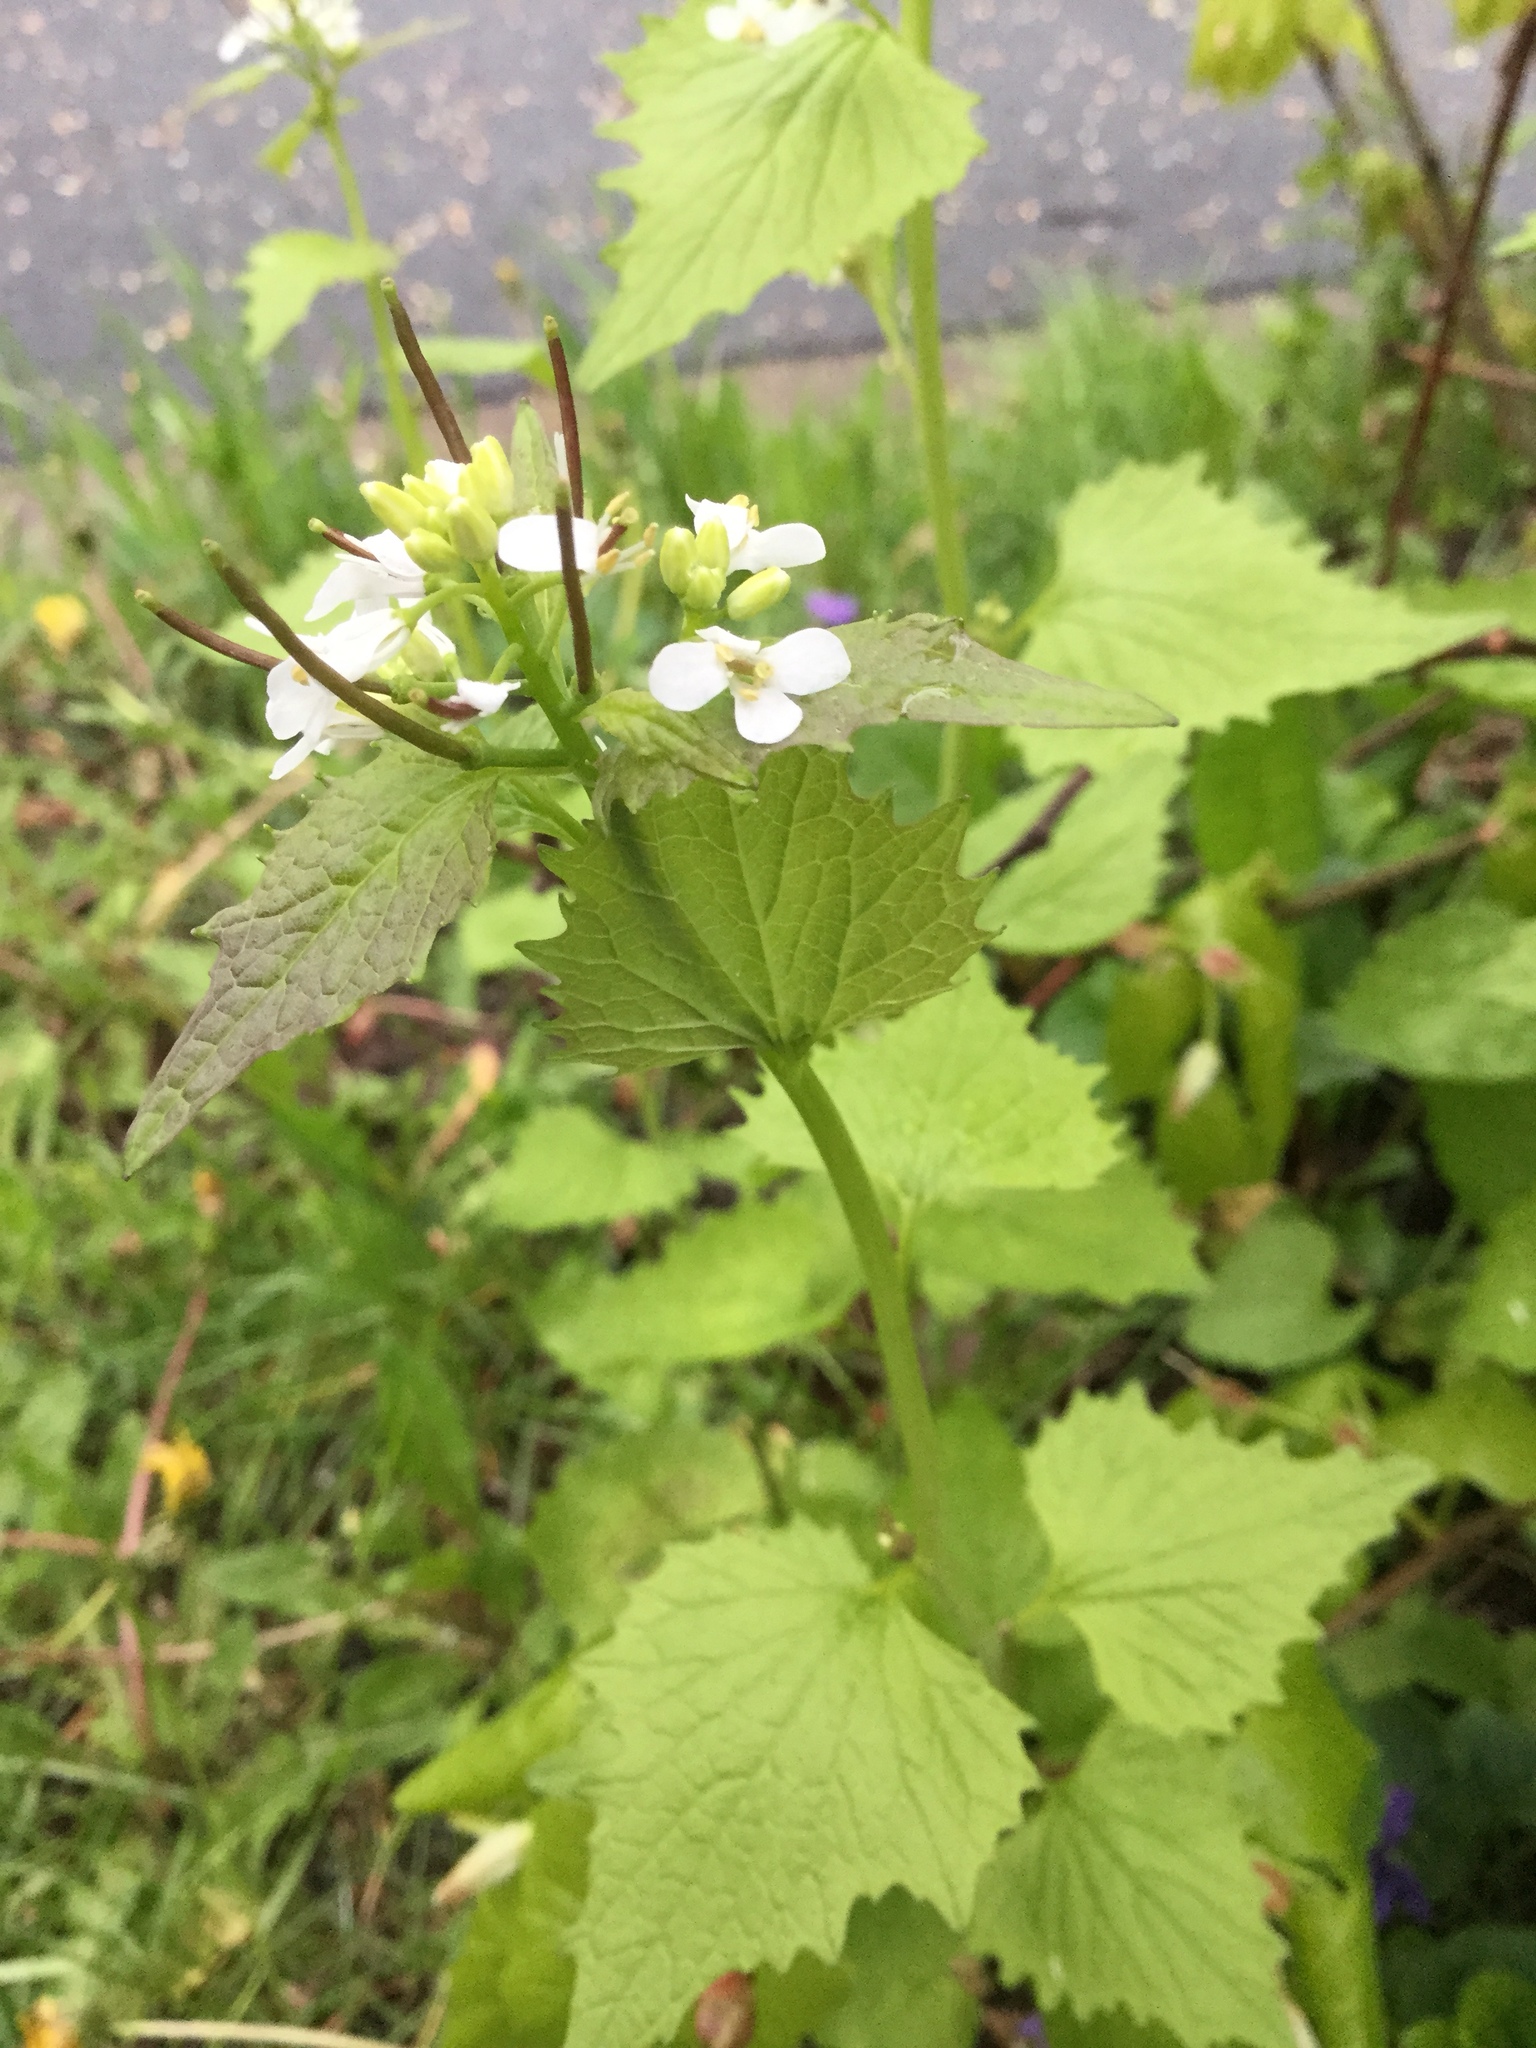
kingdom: Plantae
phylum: Tracheophyta
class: Magnoliopsida
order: Brassicales
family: Brassicaceae
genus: Alliaria
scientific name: Alliaria petiolata
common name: Garlic mustard
